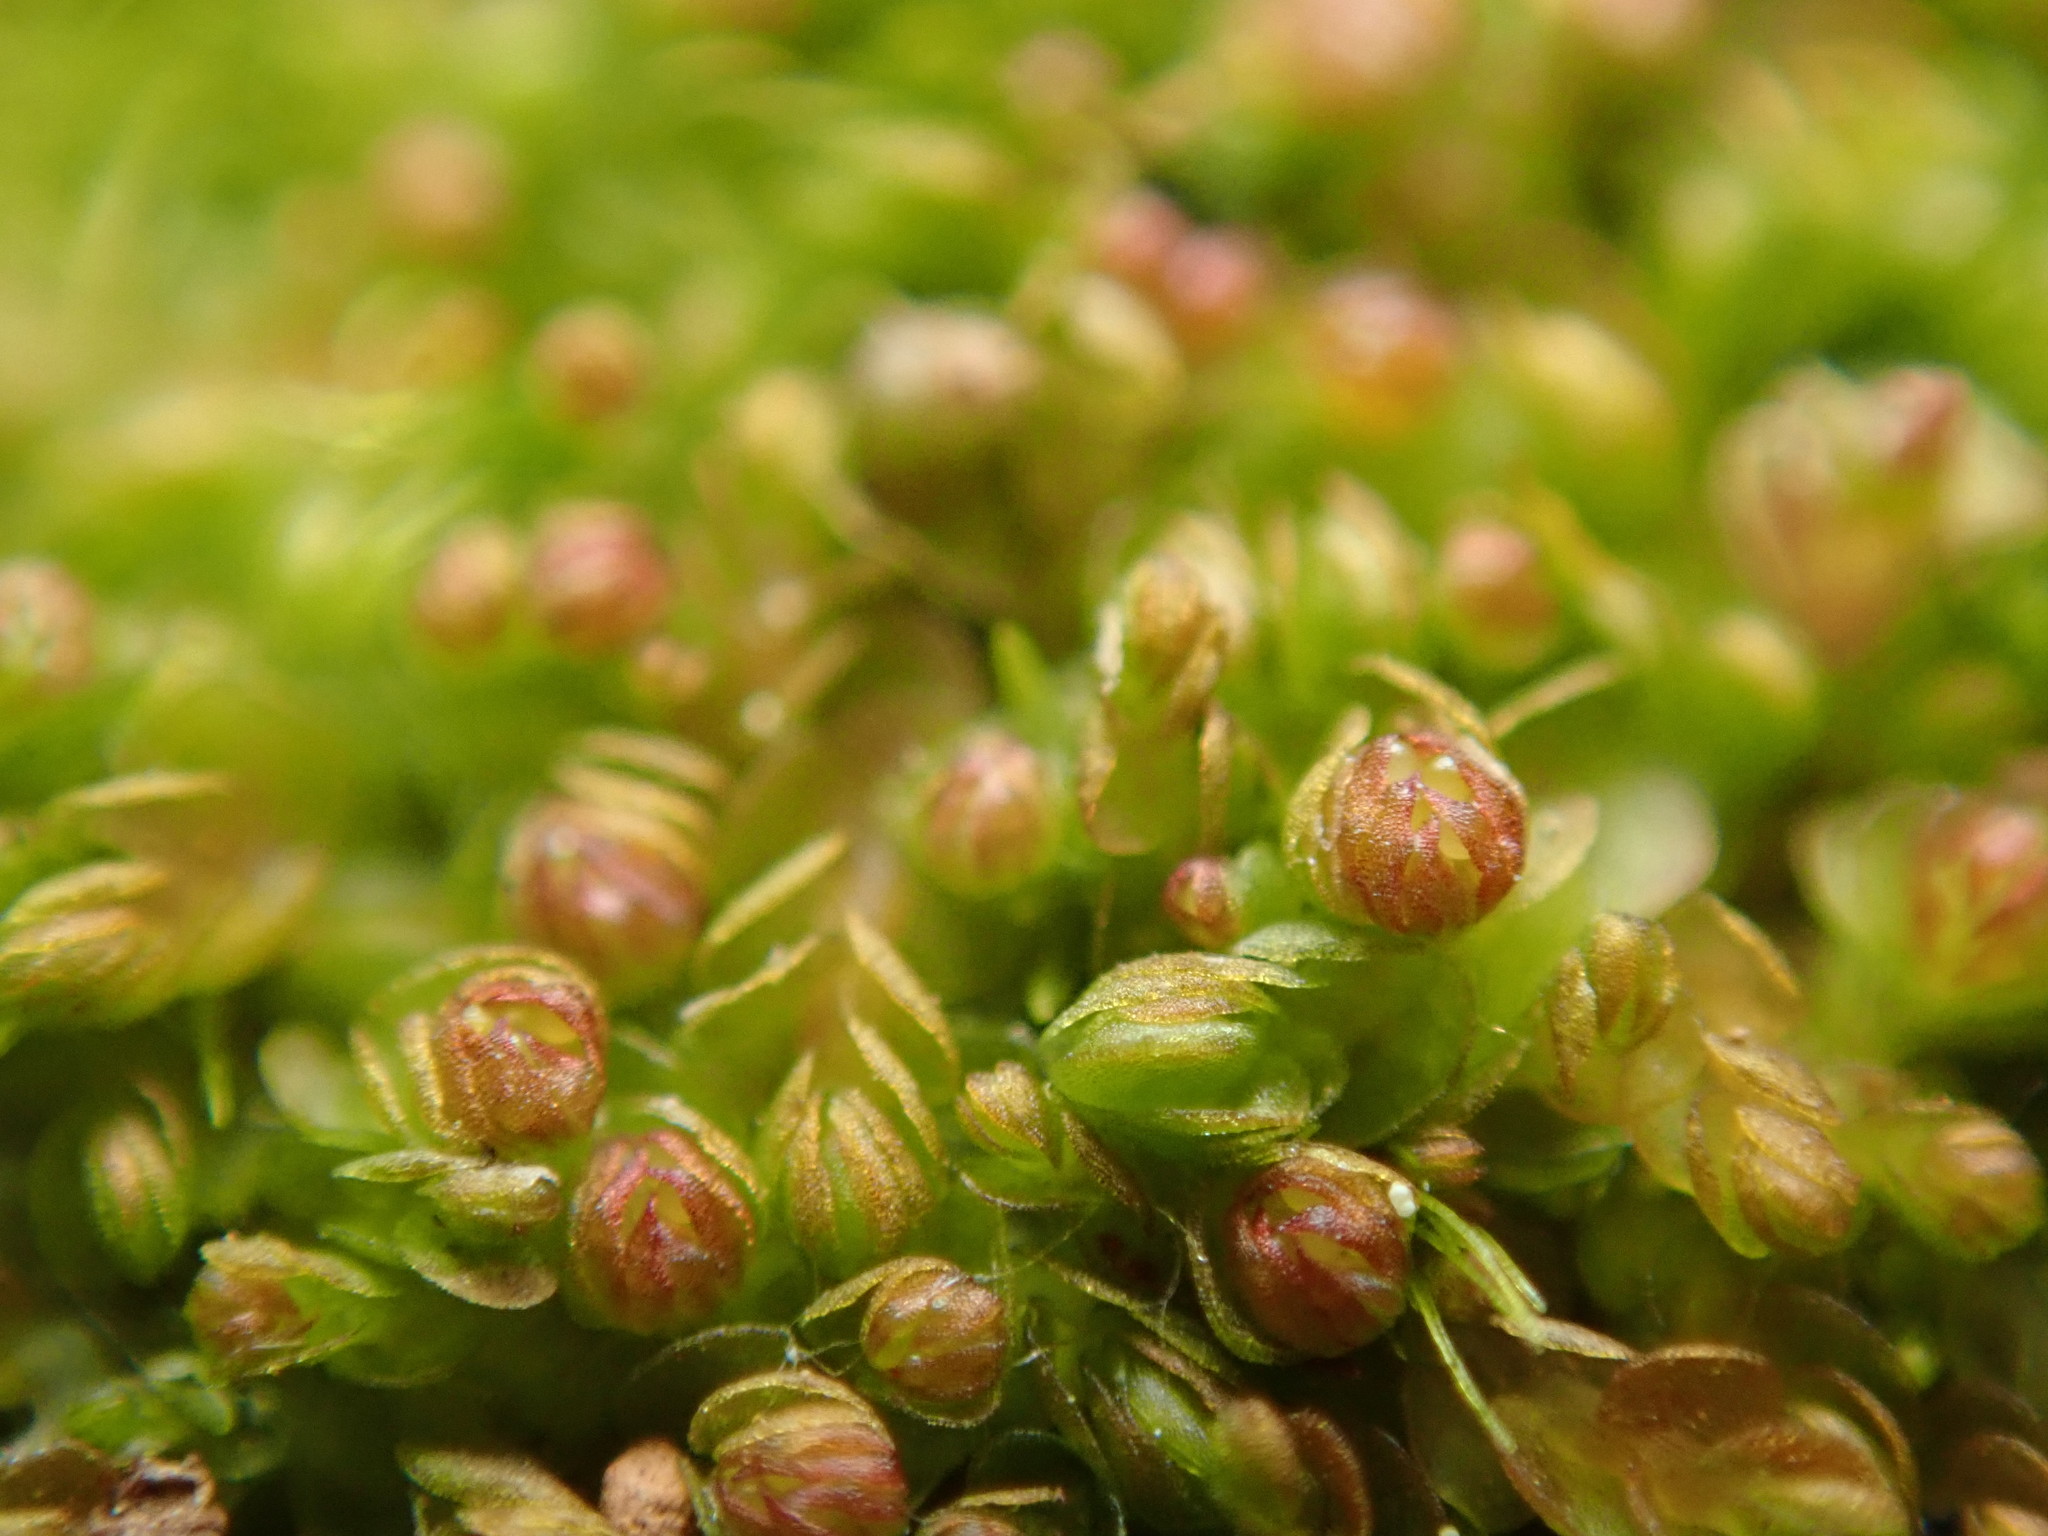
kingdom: Plantae
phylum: Marchantiophyta
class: Jungermanniopsida
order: Jungermanniales
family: Solenostomataceae
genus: Solenostoma
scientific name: Solenostoma rubrum
